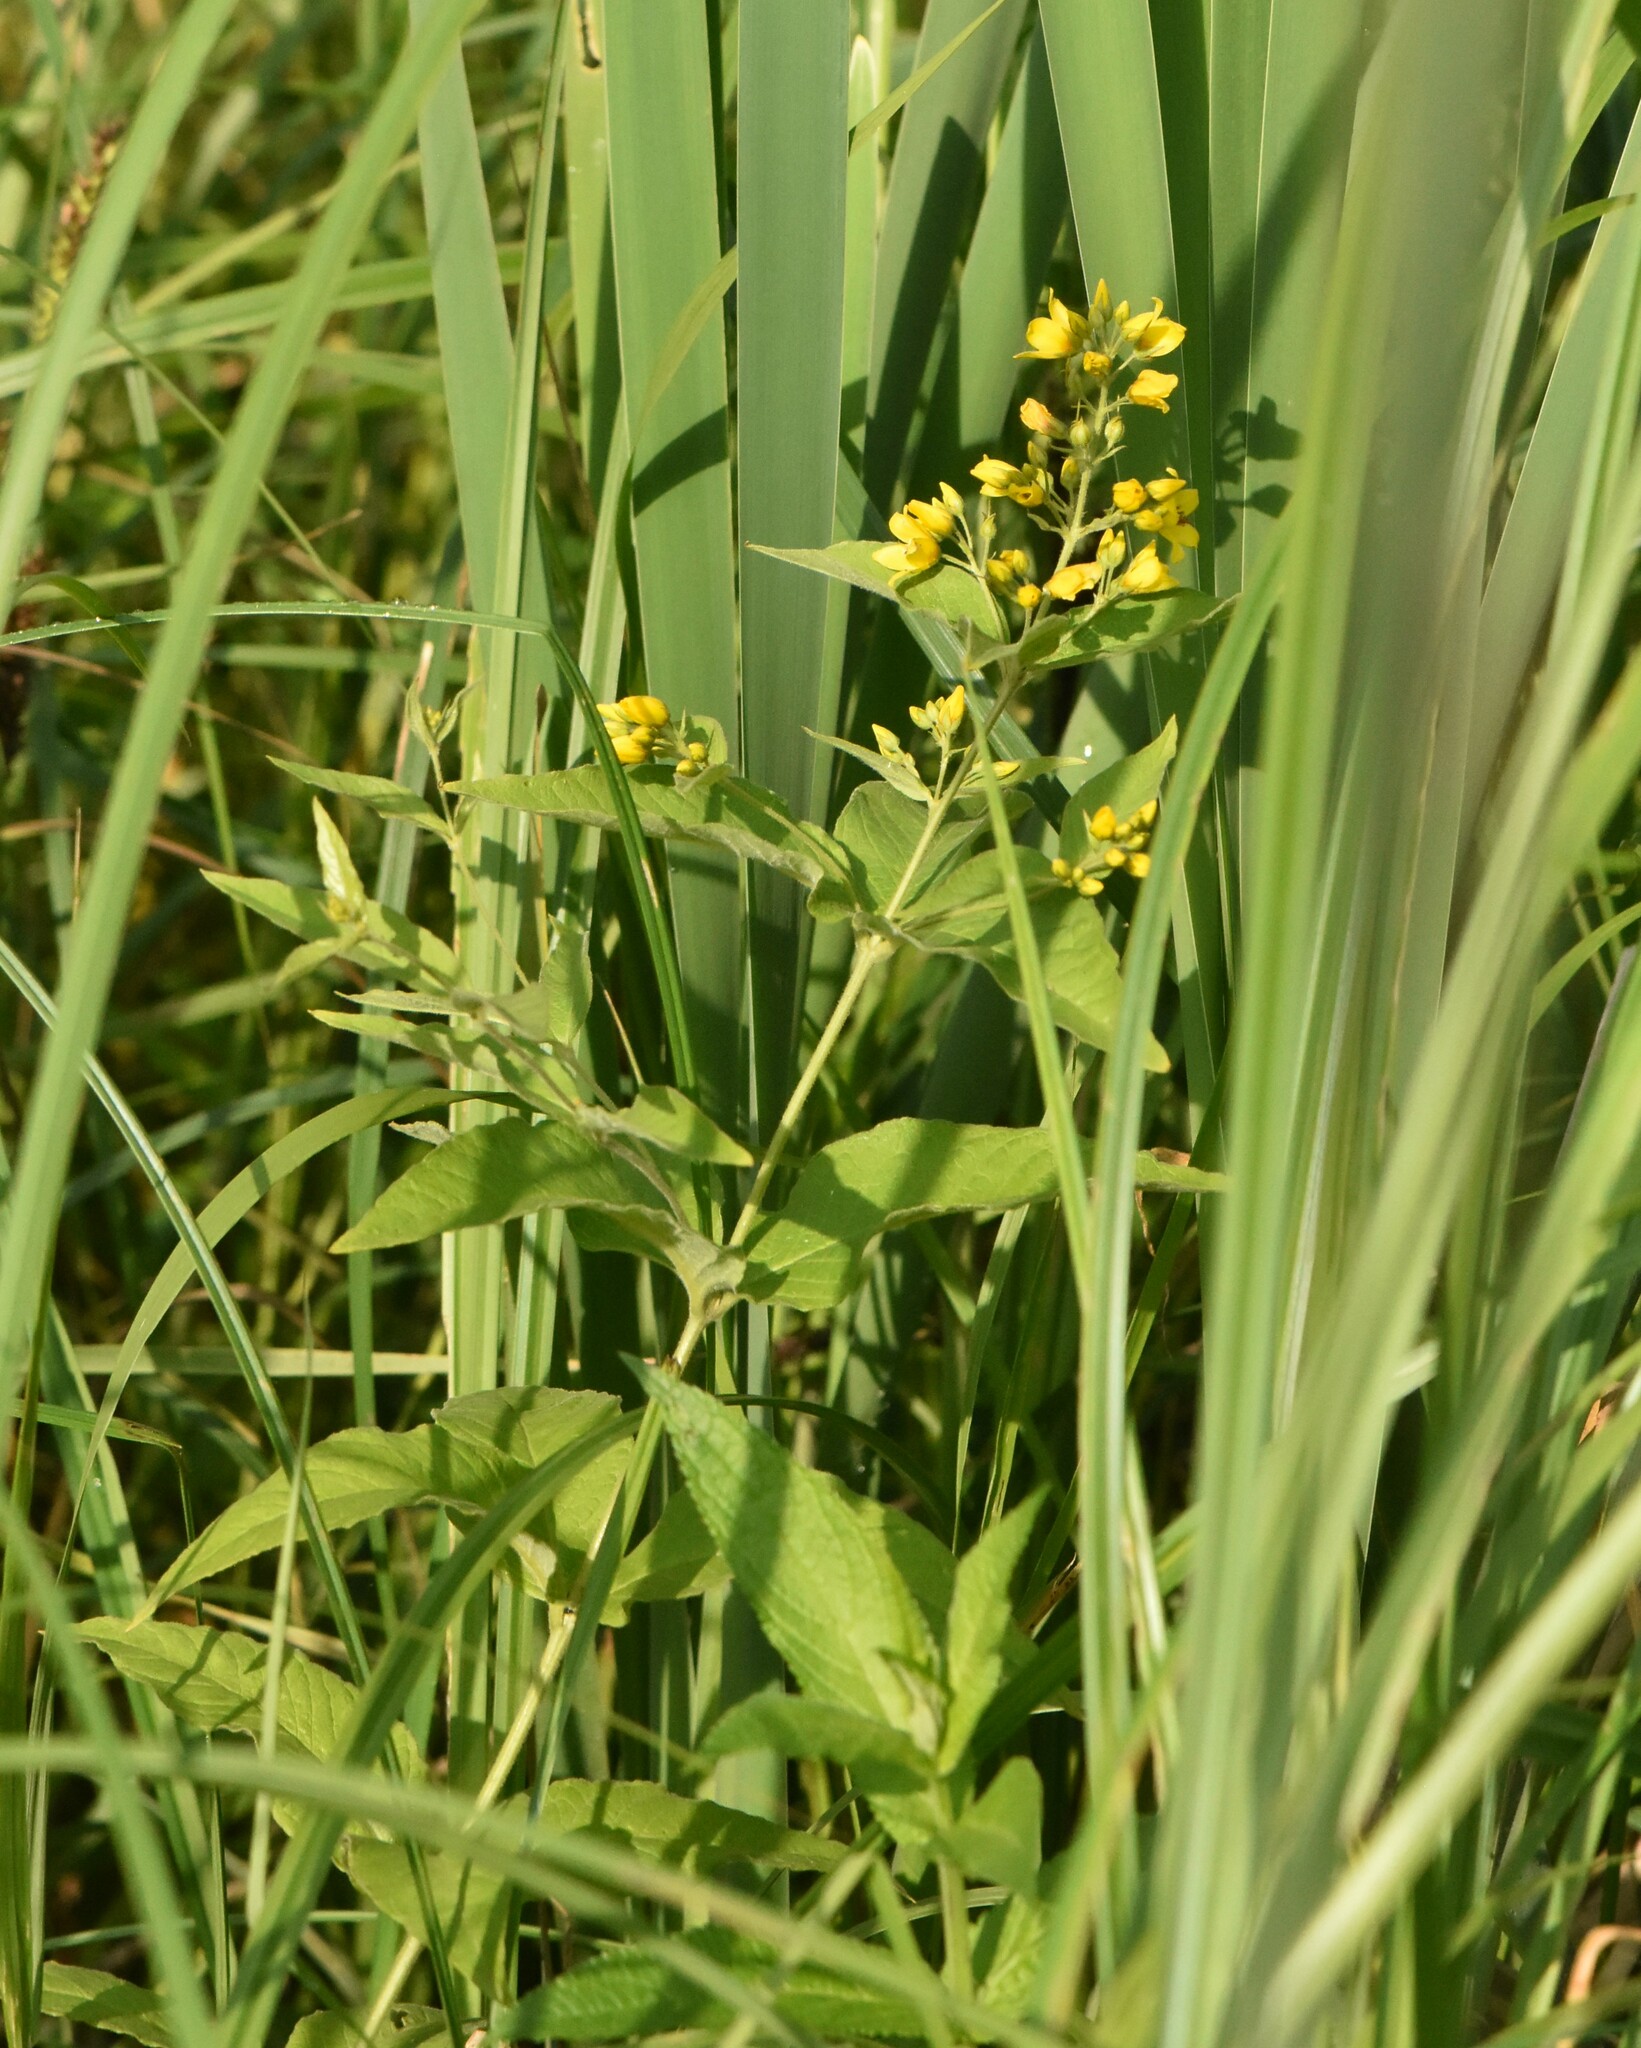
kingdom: Plantae
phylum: Tracheophyta
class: Magnoliopsida
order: Ericales
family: Primulaceae
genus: Lysimachia
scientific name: Lysimachia vulgaris
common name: Yellow loosestrife
